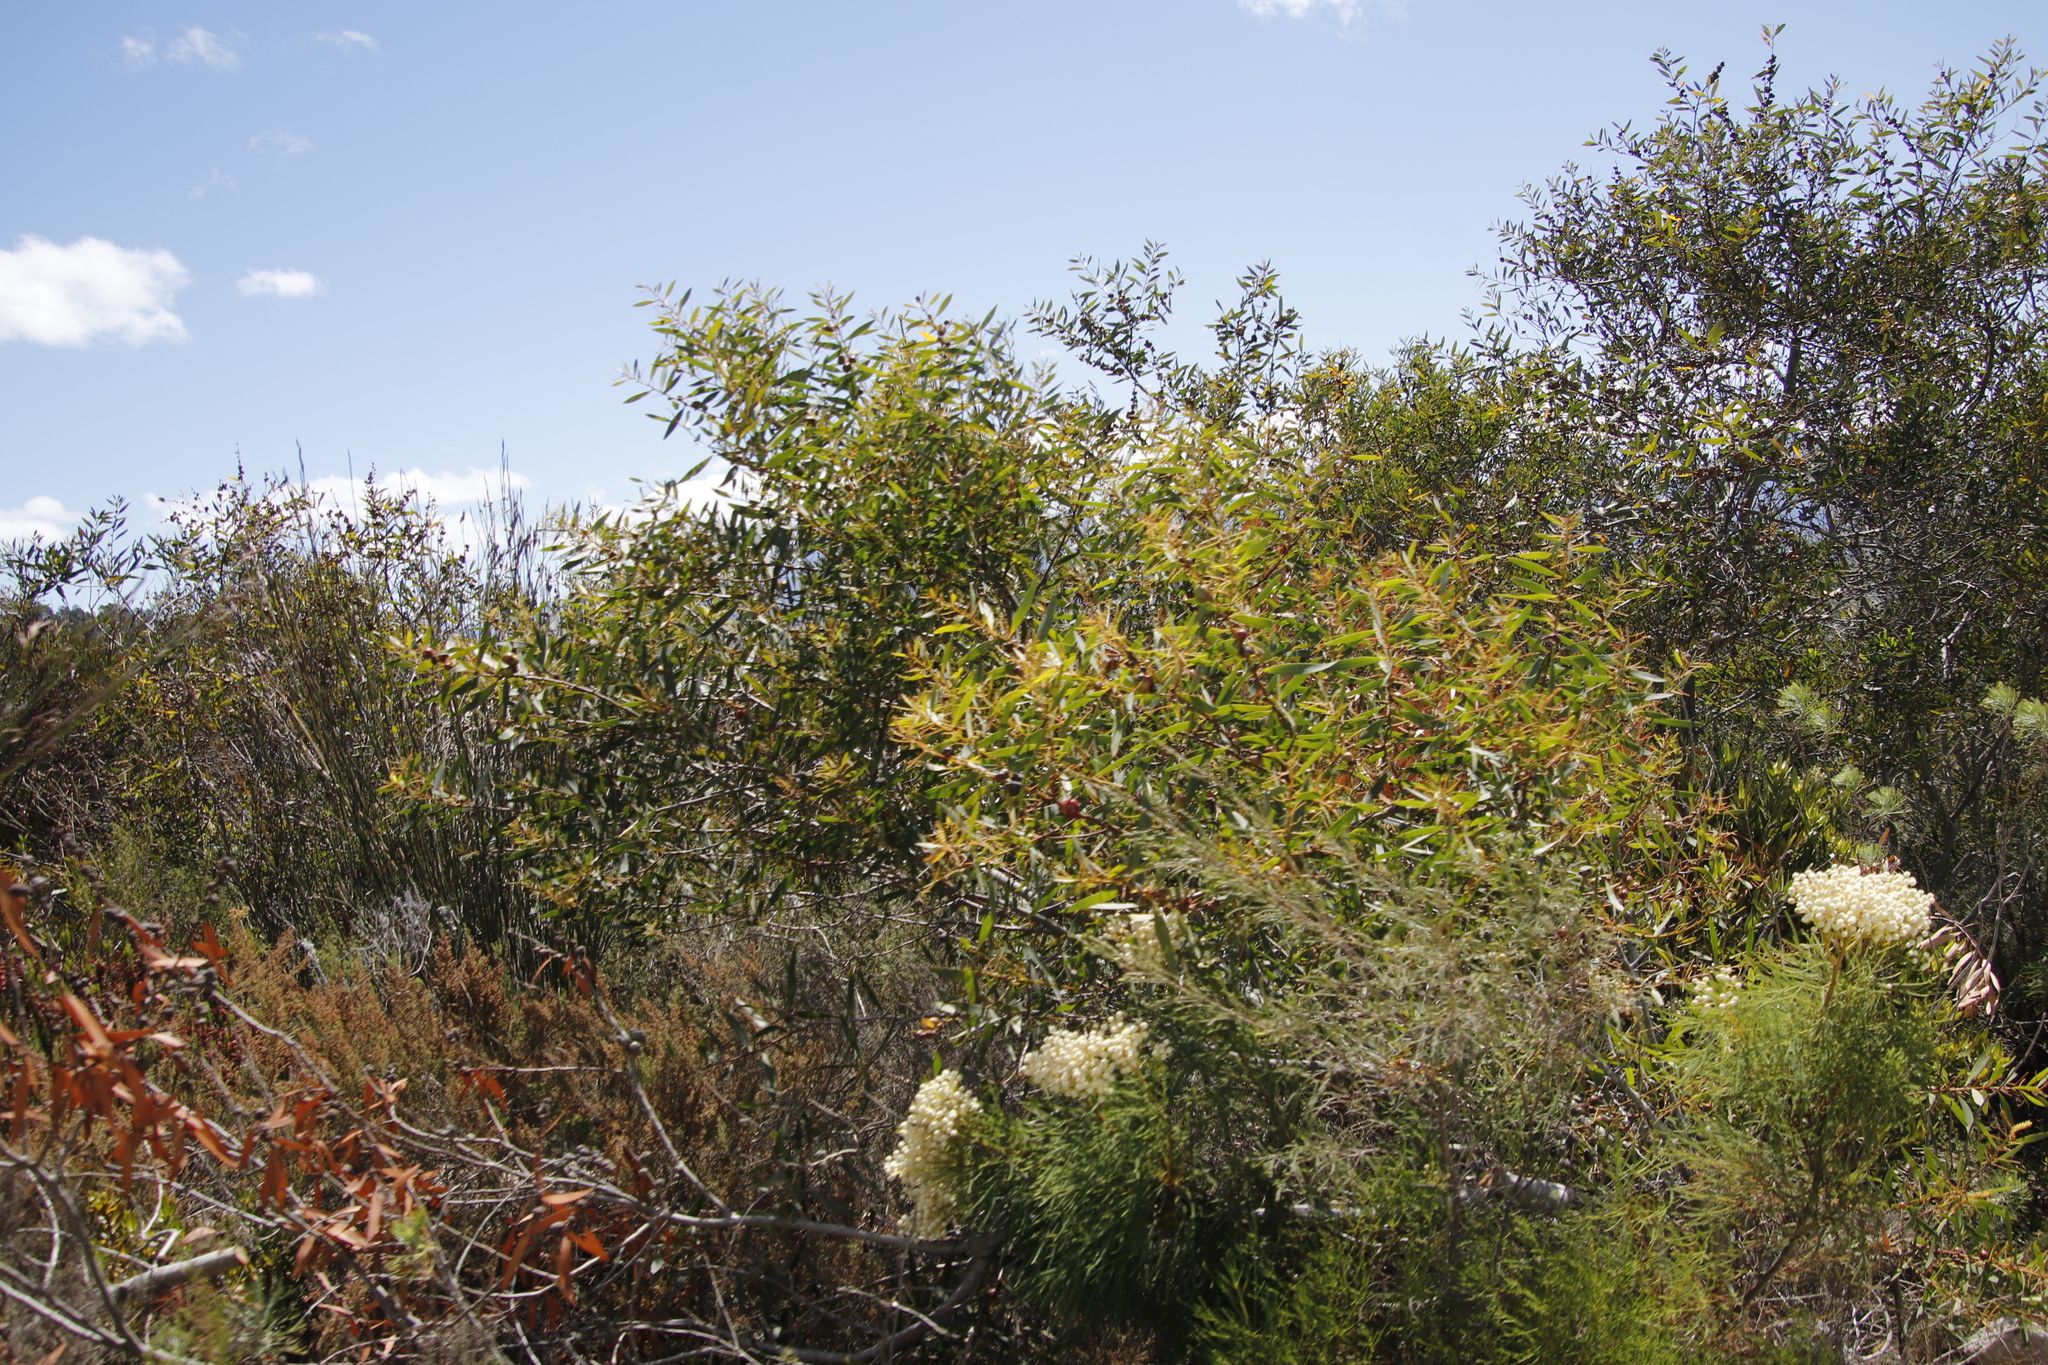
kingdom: Plantae
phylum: Tracheophyta
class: Magnoliopsida
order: Fabales
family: Fabaceae
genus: Acacia
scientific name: Acacia longifolia
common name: Sydney golden wattle
